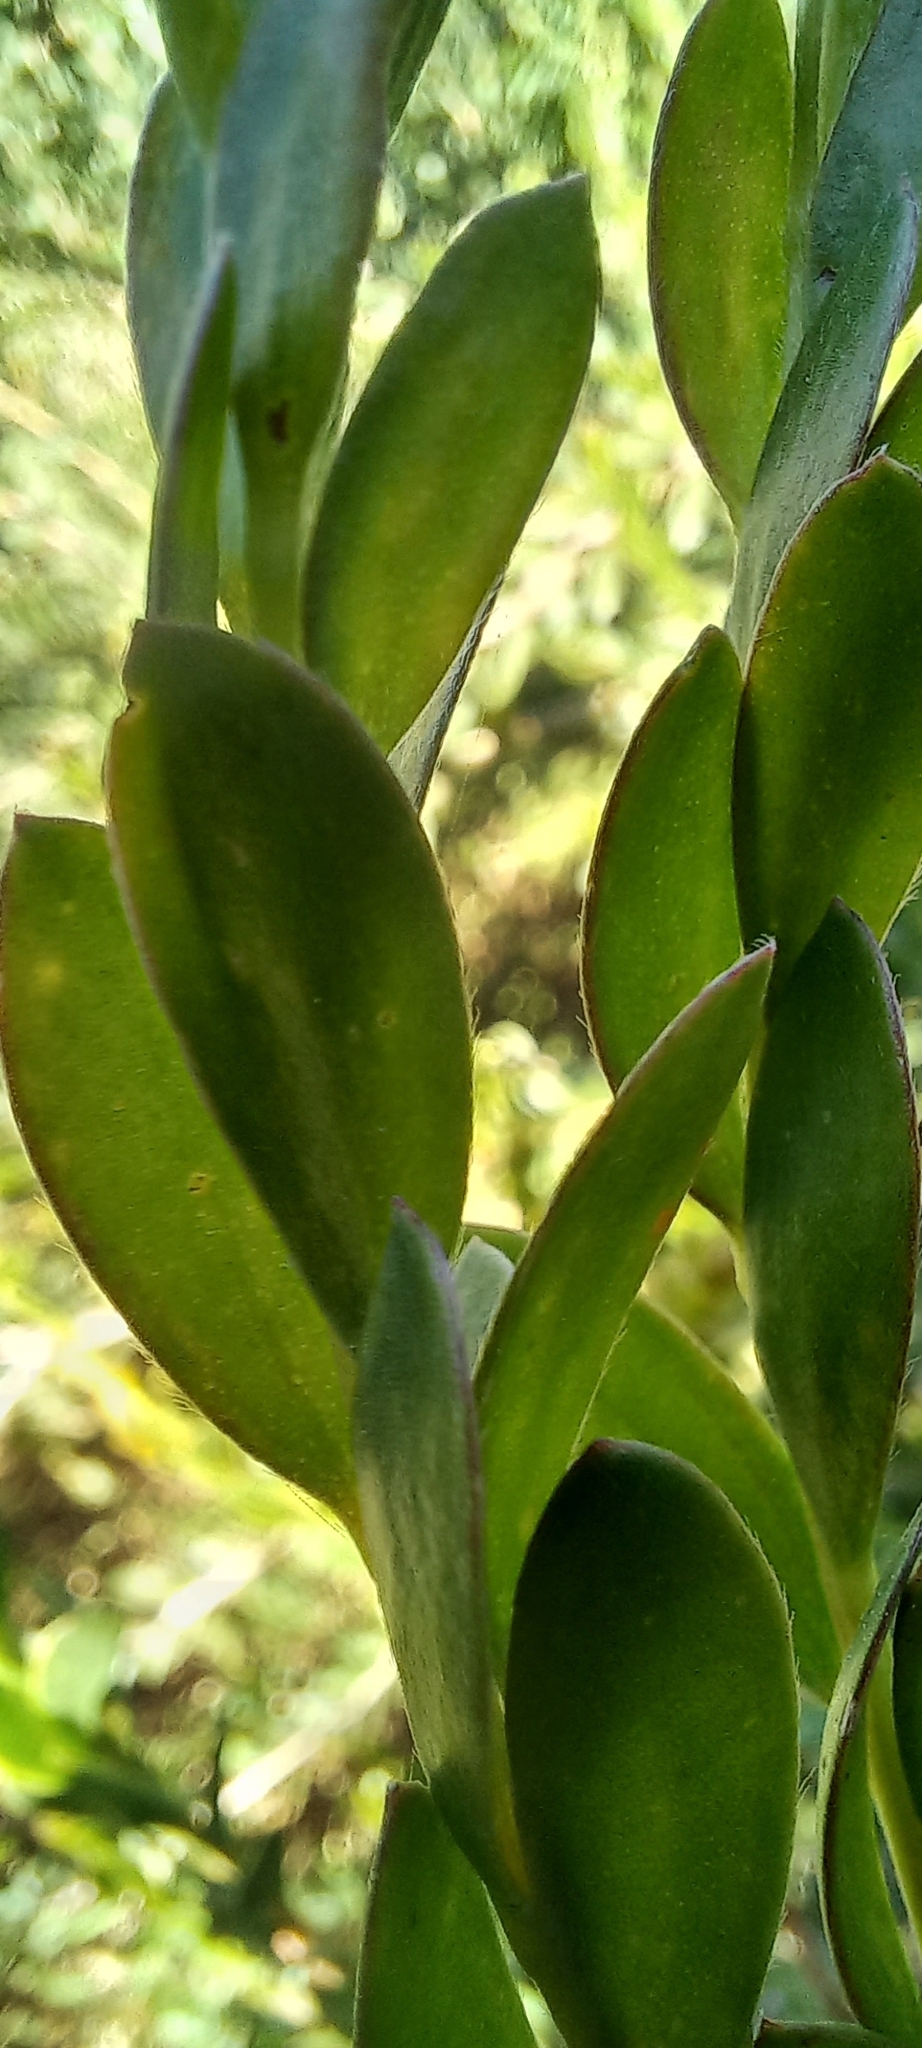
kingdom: Plantae
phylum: Tracheophyta
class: Magnoliopsida
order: Myrtales
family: Myrtaceae
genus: Melaleuca
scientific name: Melaleuca nesophila
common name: Mauve honey myrtle
